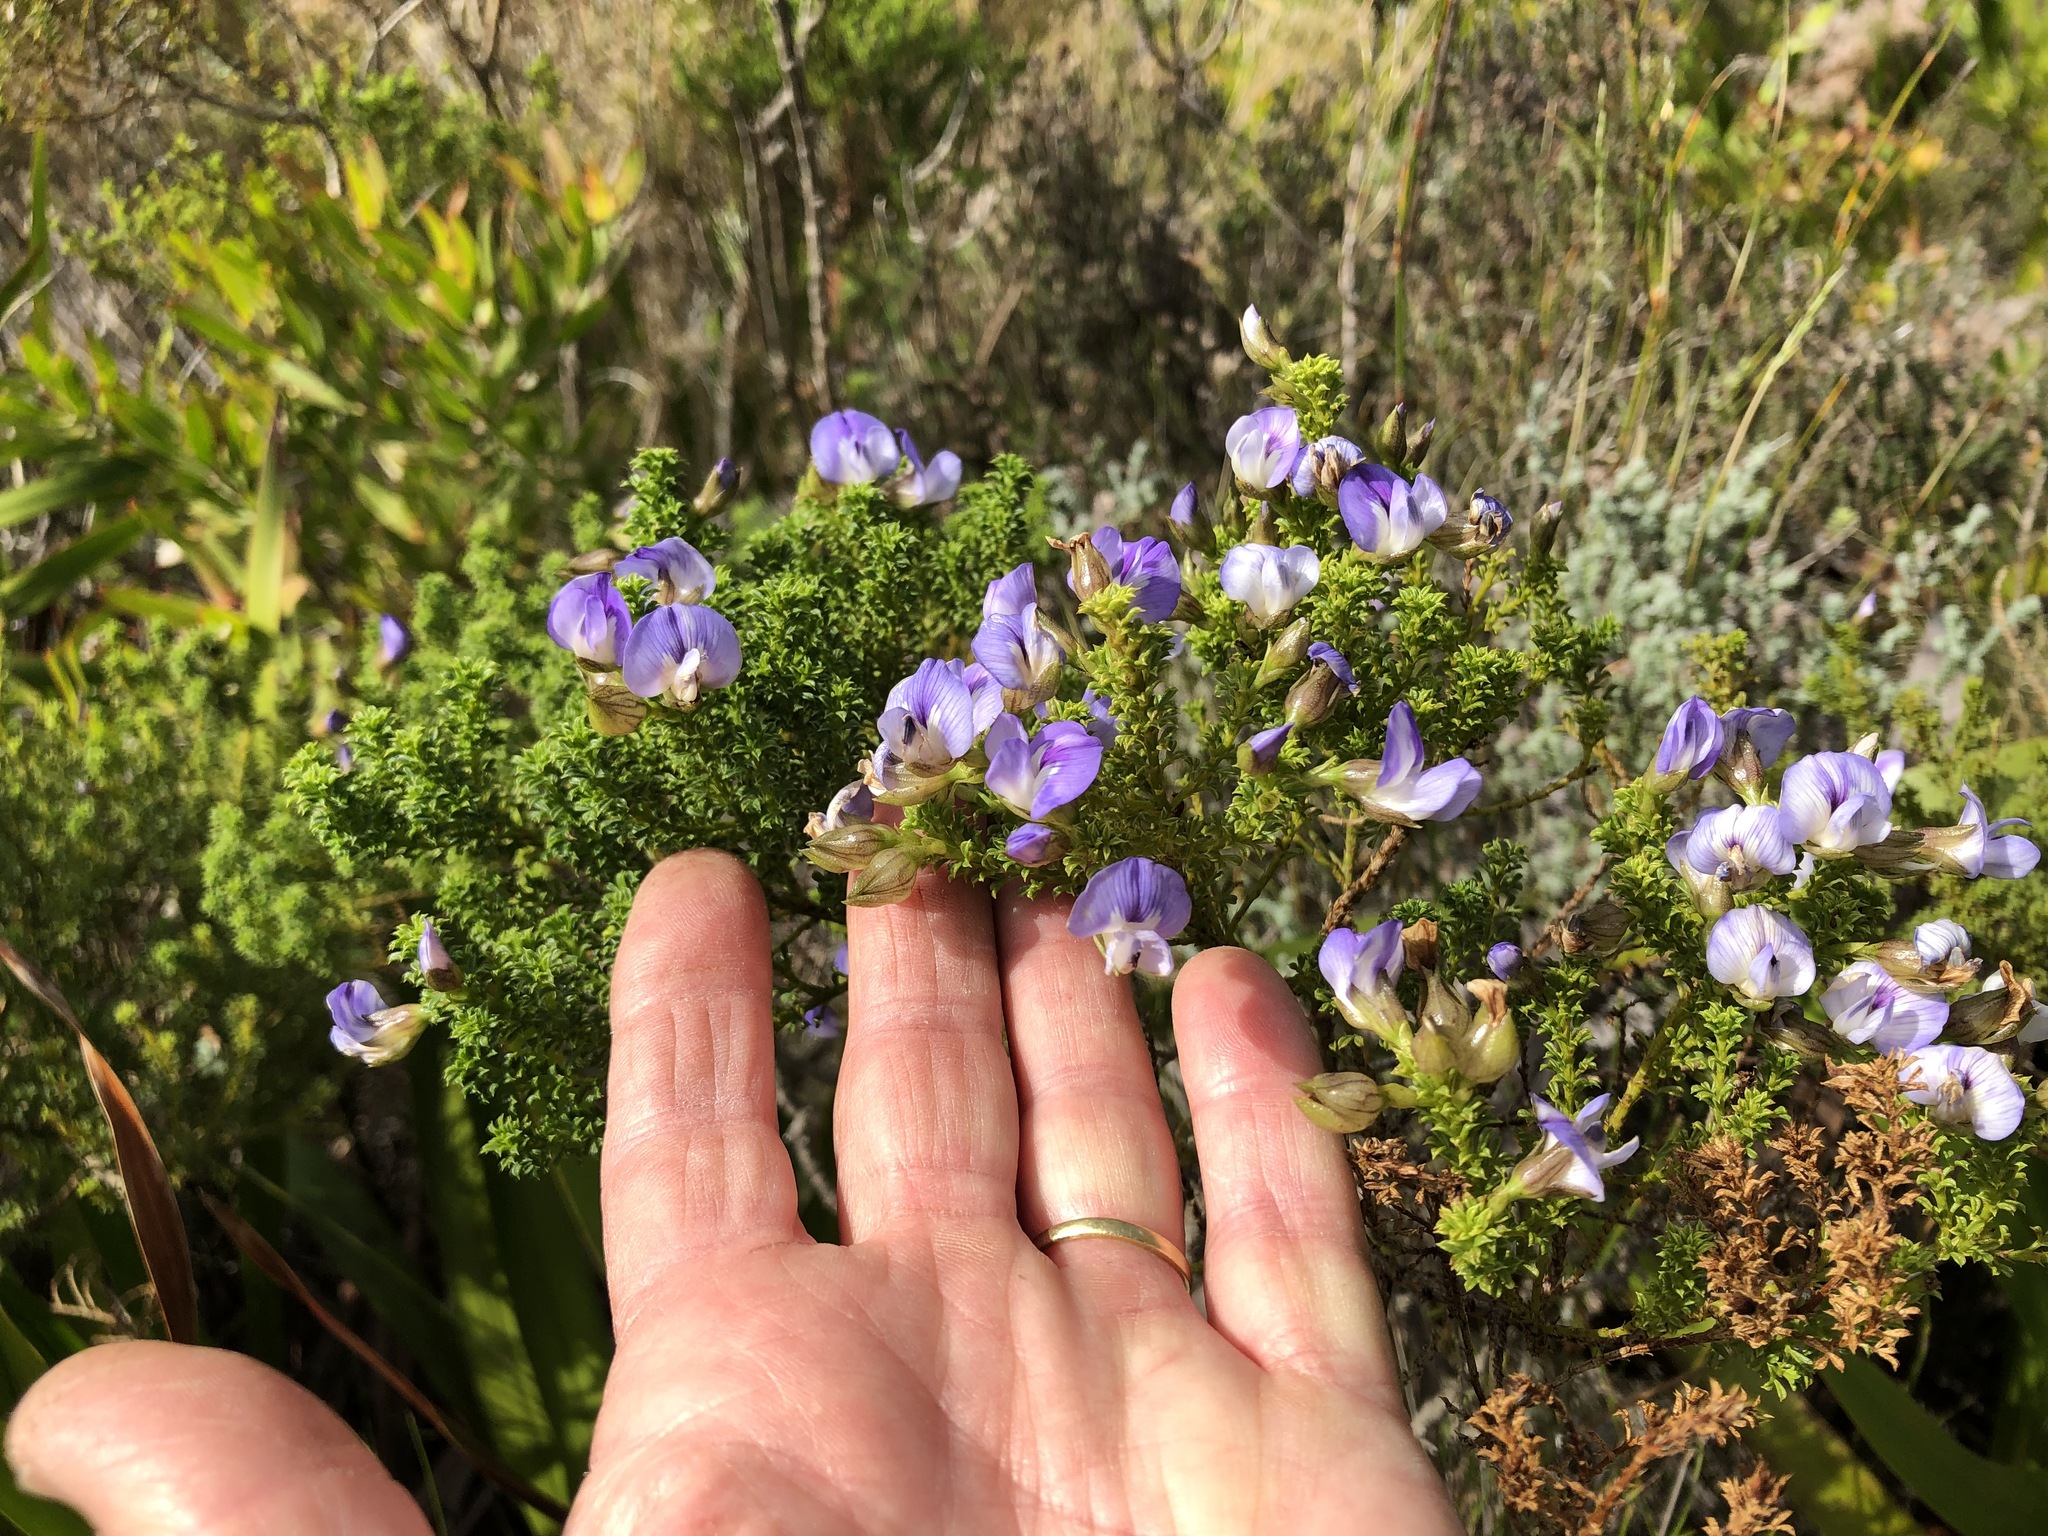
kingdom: Plantae
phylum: Tracheophyta
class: Magnoliopsida
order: Fabales
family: Fabaceae
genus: Psoralea
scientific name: Psoralea aculeata
